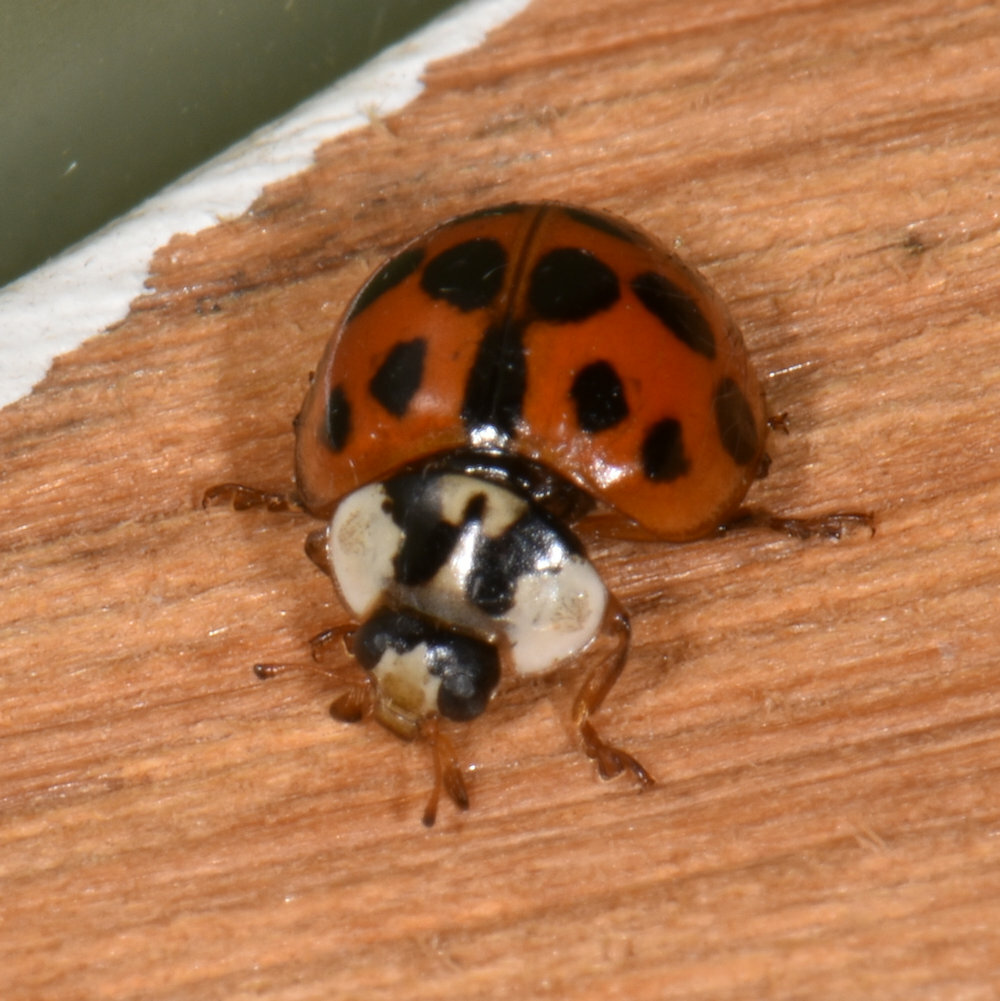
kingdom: Animalia
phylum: Arthropoda
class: Insecta
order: Coleoptera
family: Coccinellidae
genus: Harmonia
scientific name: Harmonia axyridis
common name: Harlequin ladybird
